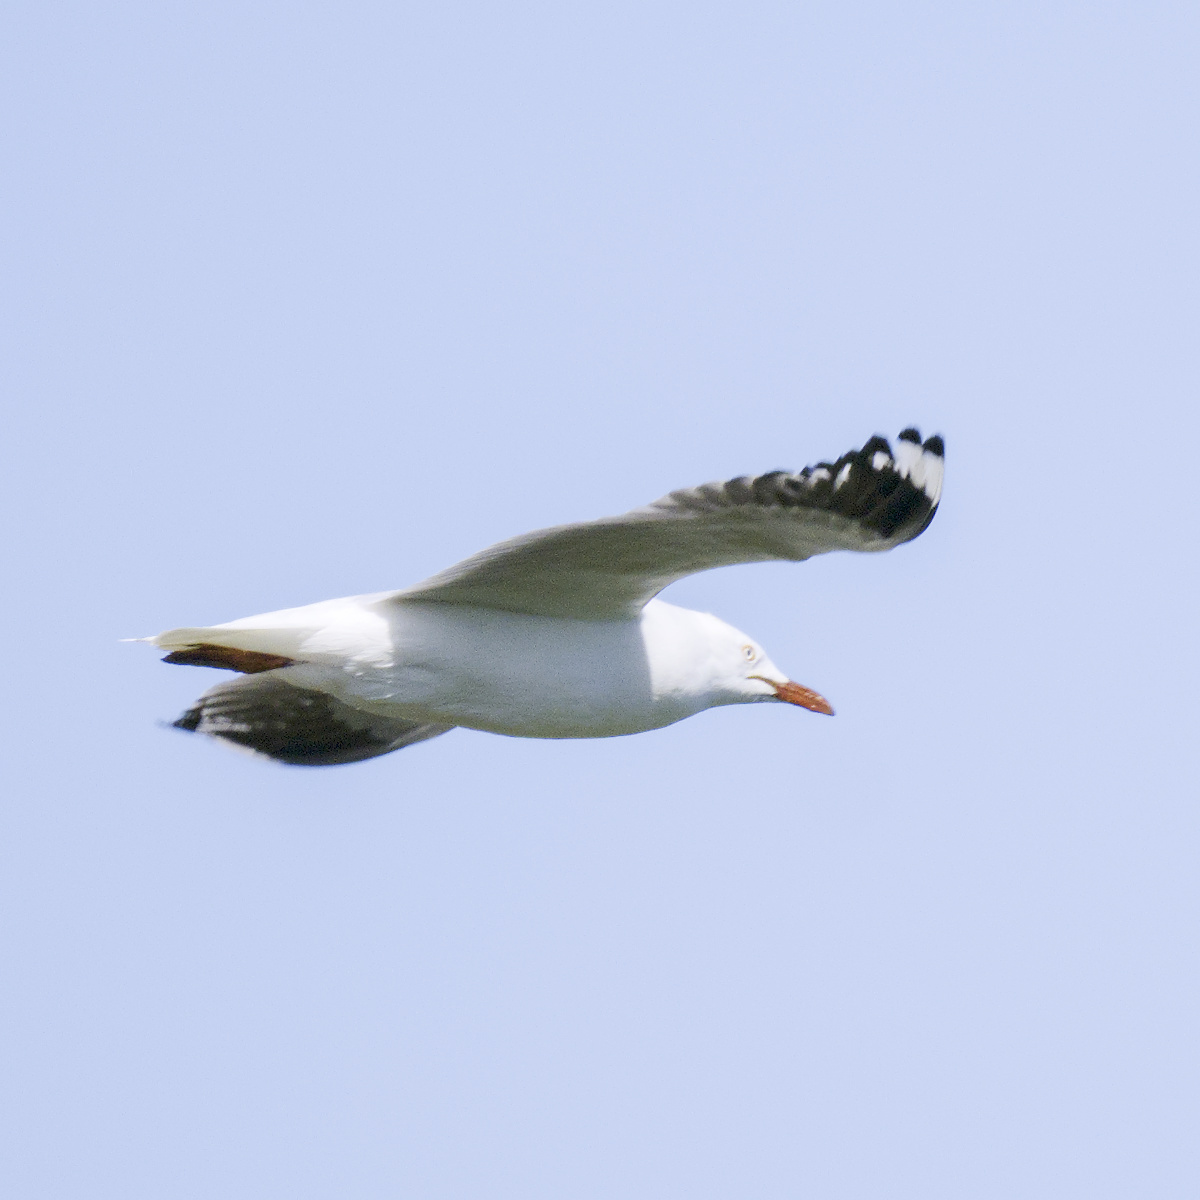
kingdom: Animalia
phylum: Chordata
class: Aves
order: Charadriiformes
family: Laridae
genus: Chroicocephalus
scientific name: Chroicocephalus novaehollandiae
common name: Silver gull
